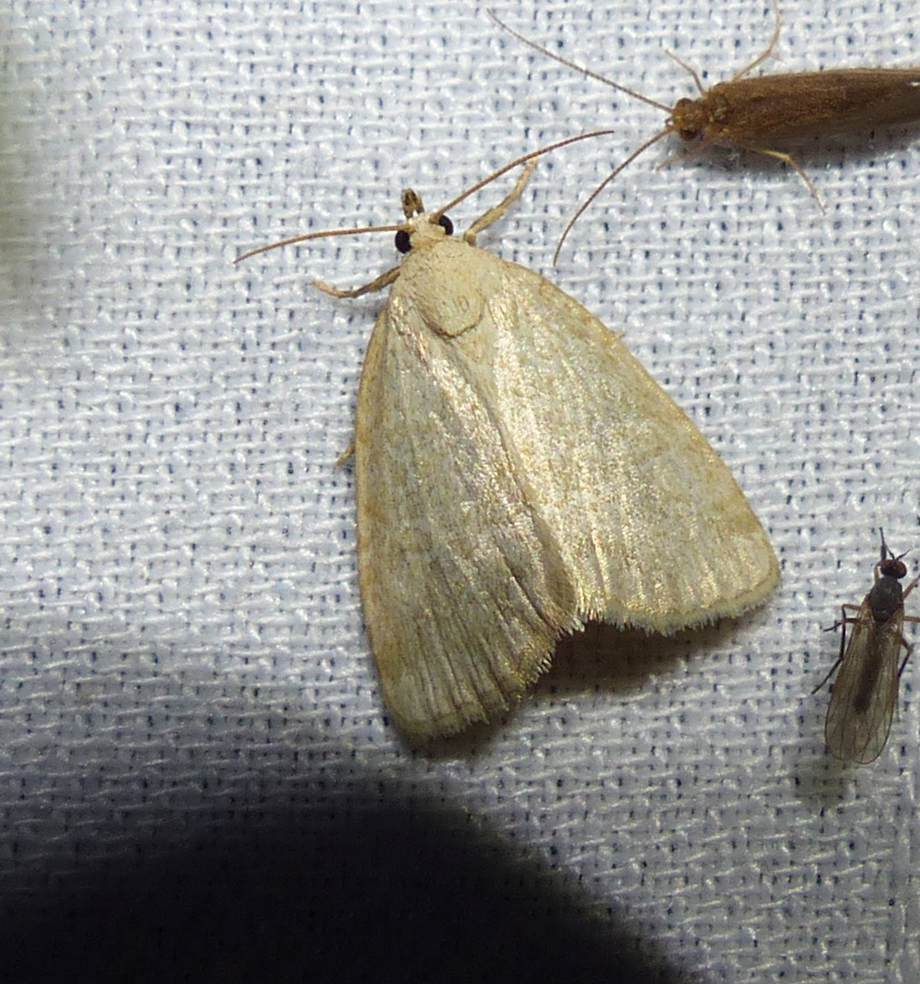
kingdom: Animalia
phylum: Arthropoda
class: Insecta
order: Lepidoptera
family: Noctuidae
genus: Protodeltote
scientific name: Protodeltote albidula
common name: Pale glyph
